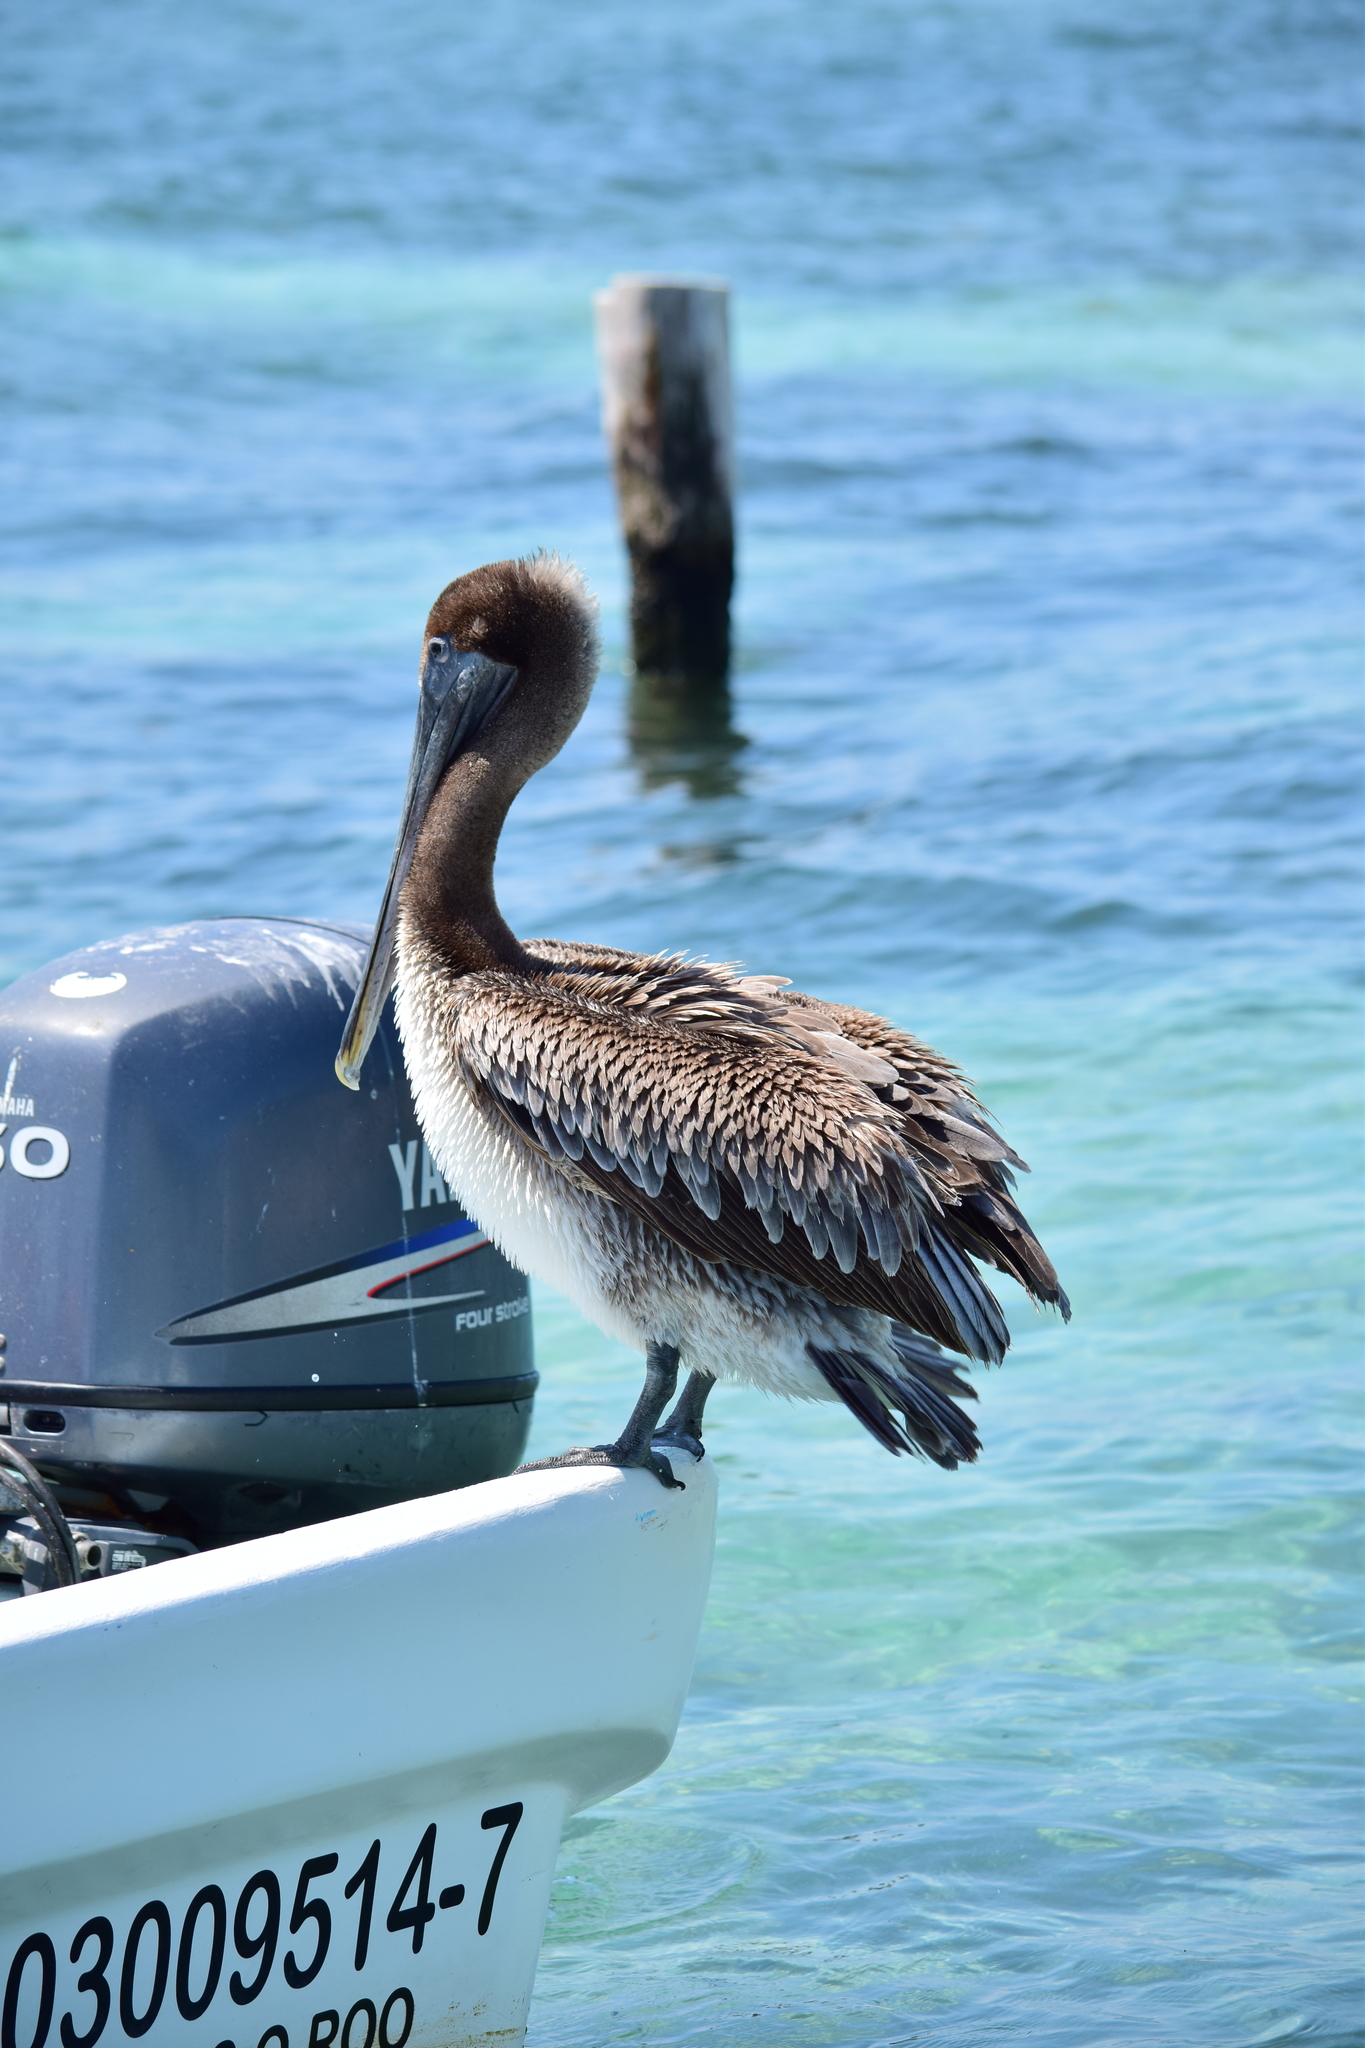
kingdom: Animalia
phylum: Chordata
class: Aves
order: Pelecaniformes
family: Pelecanidae
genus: Pelecanus
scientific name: Pelecanus occidentalis
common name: Brown pelican
